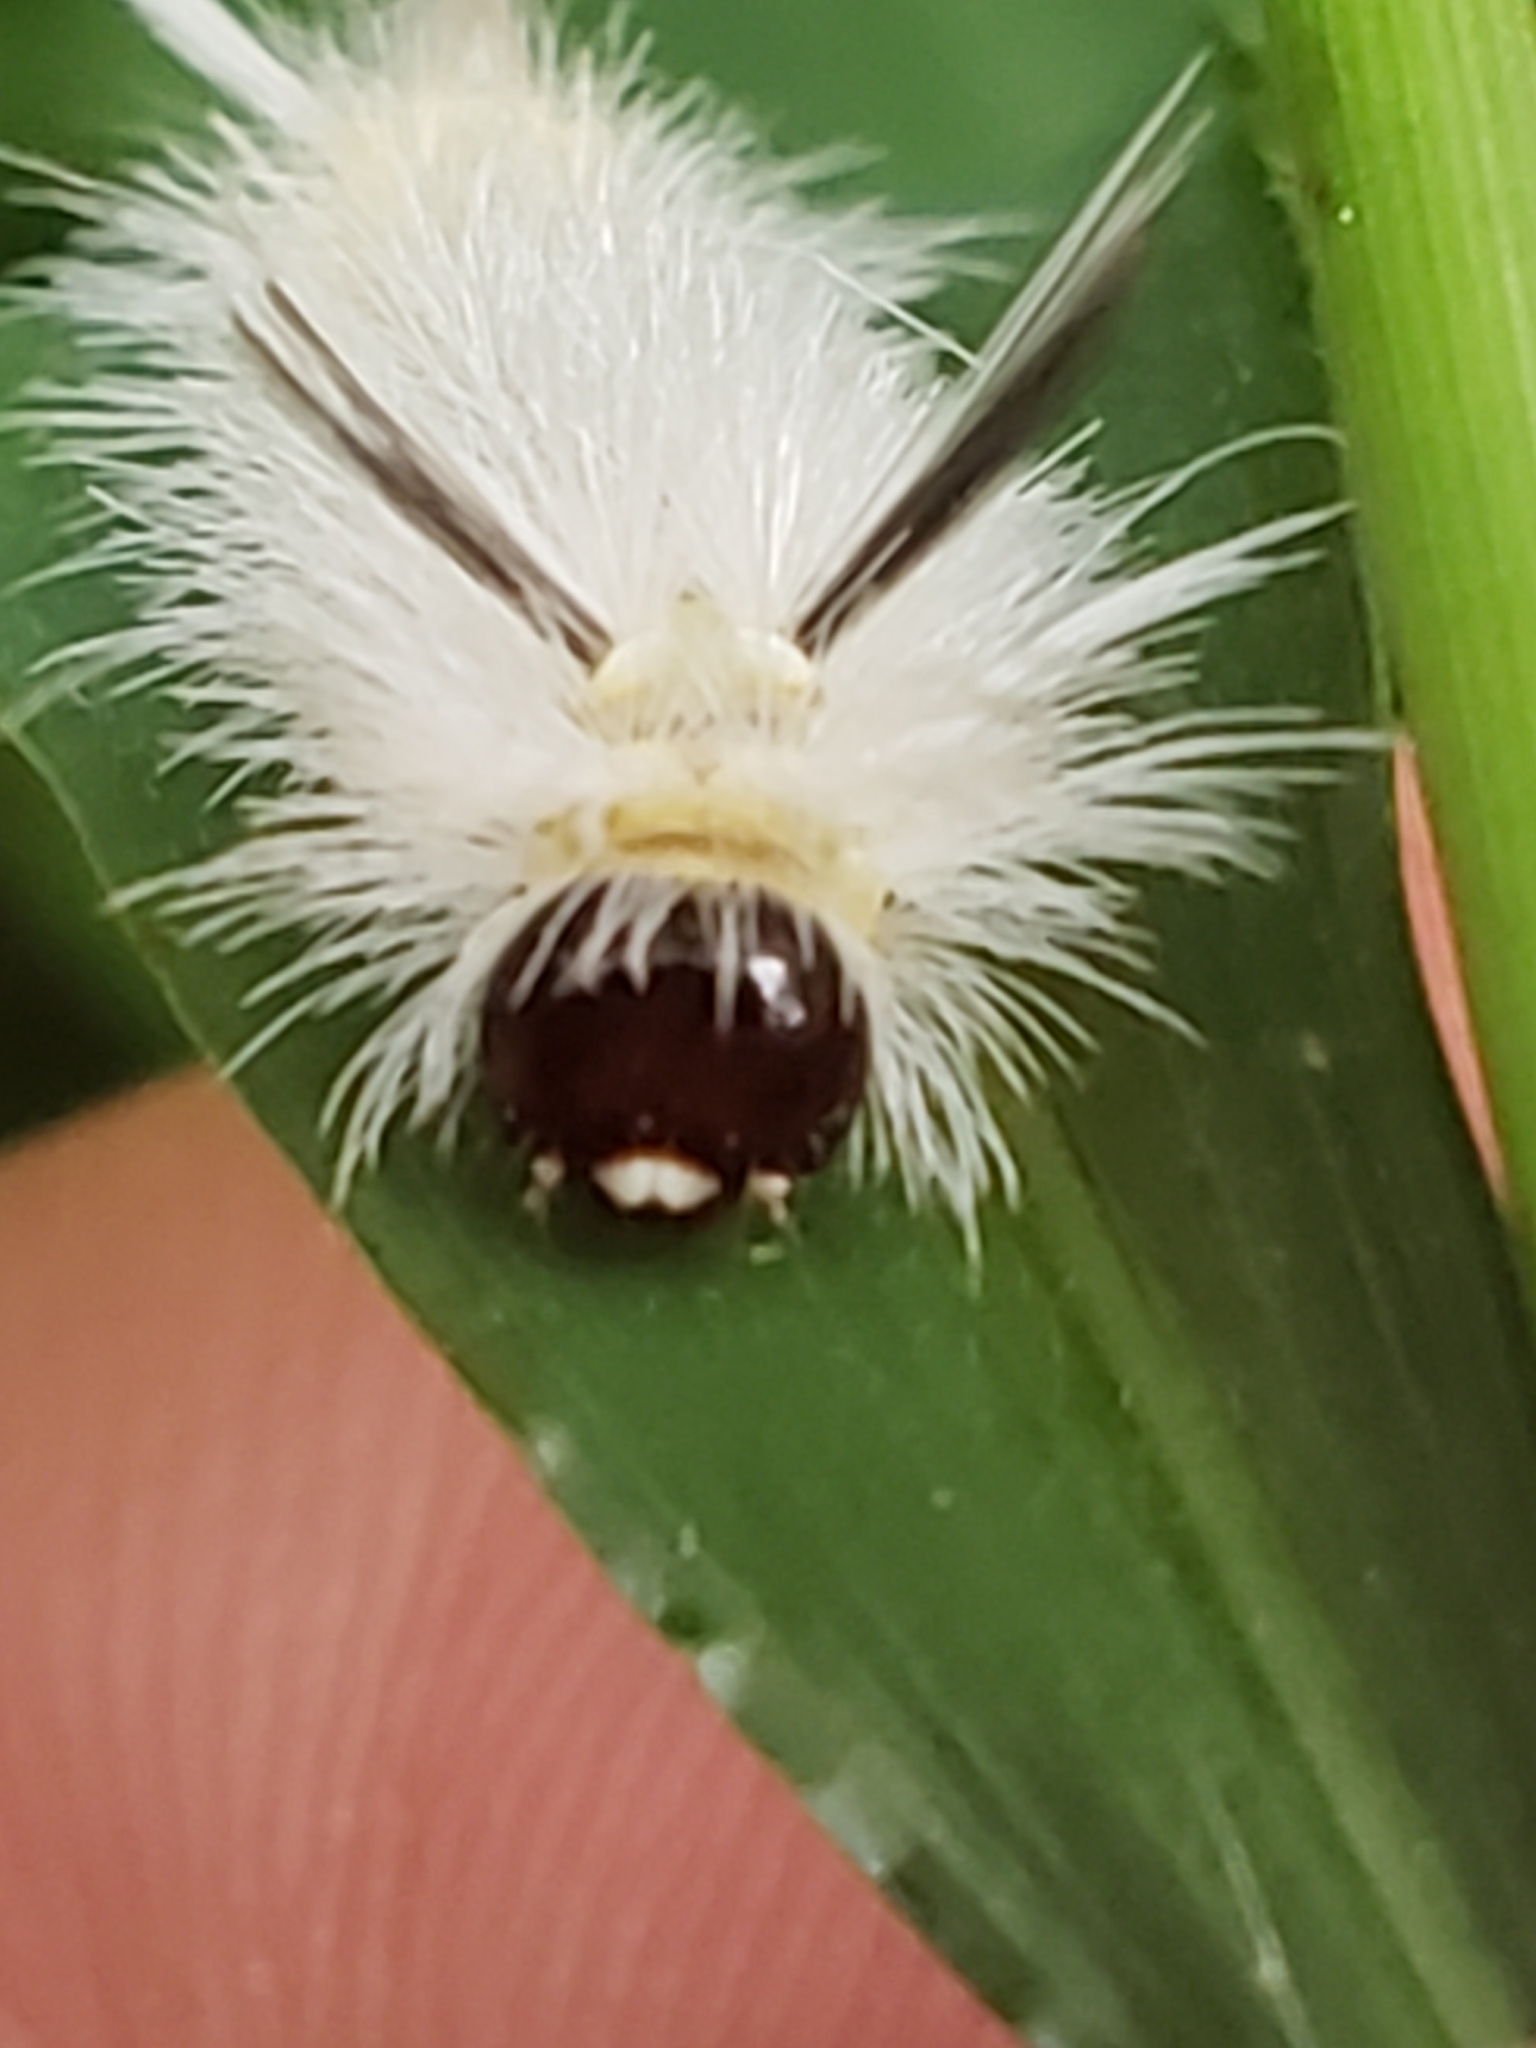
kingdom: Animalia
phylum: Arthropoda
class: Insecta
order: Lepidoptera
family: Erebidae
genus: Halysidota
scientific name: Halysidota tessellaris
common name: Banded tussock moth
